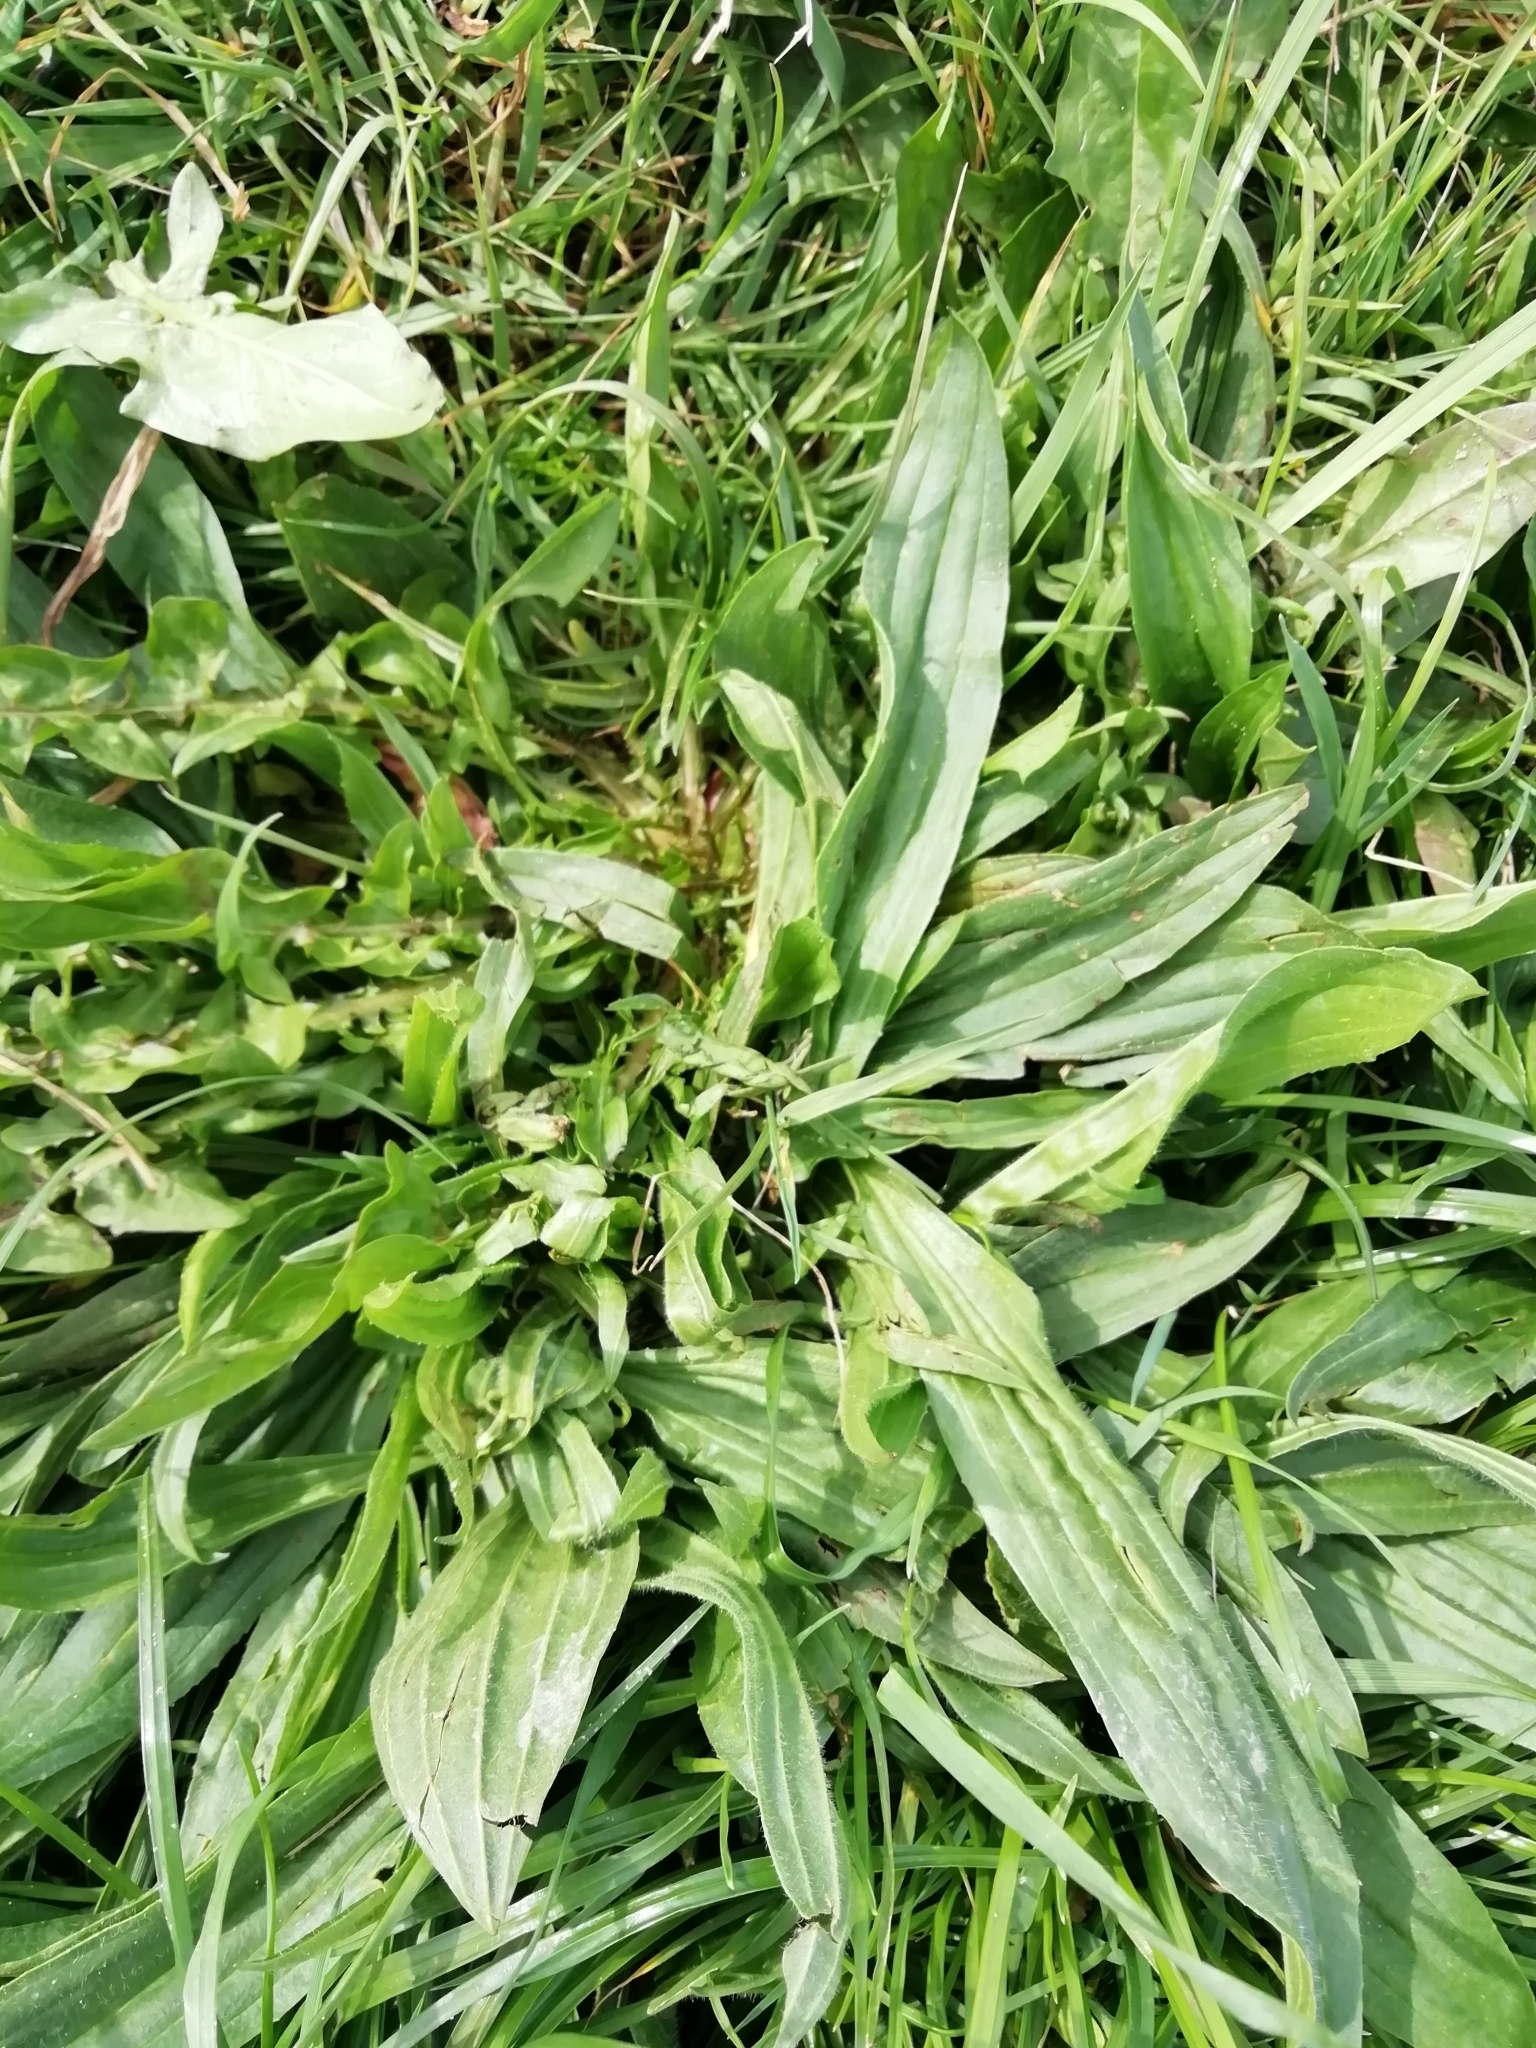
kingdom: Plantae
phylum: Tracheophyta
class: Magnoliopsida
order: Lamiales
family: Plantaginaceae
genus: Plantago
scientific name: Plantago lanceolata
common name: Ribwort plantain
